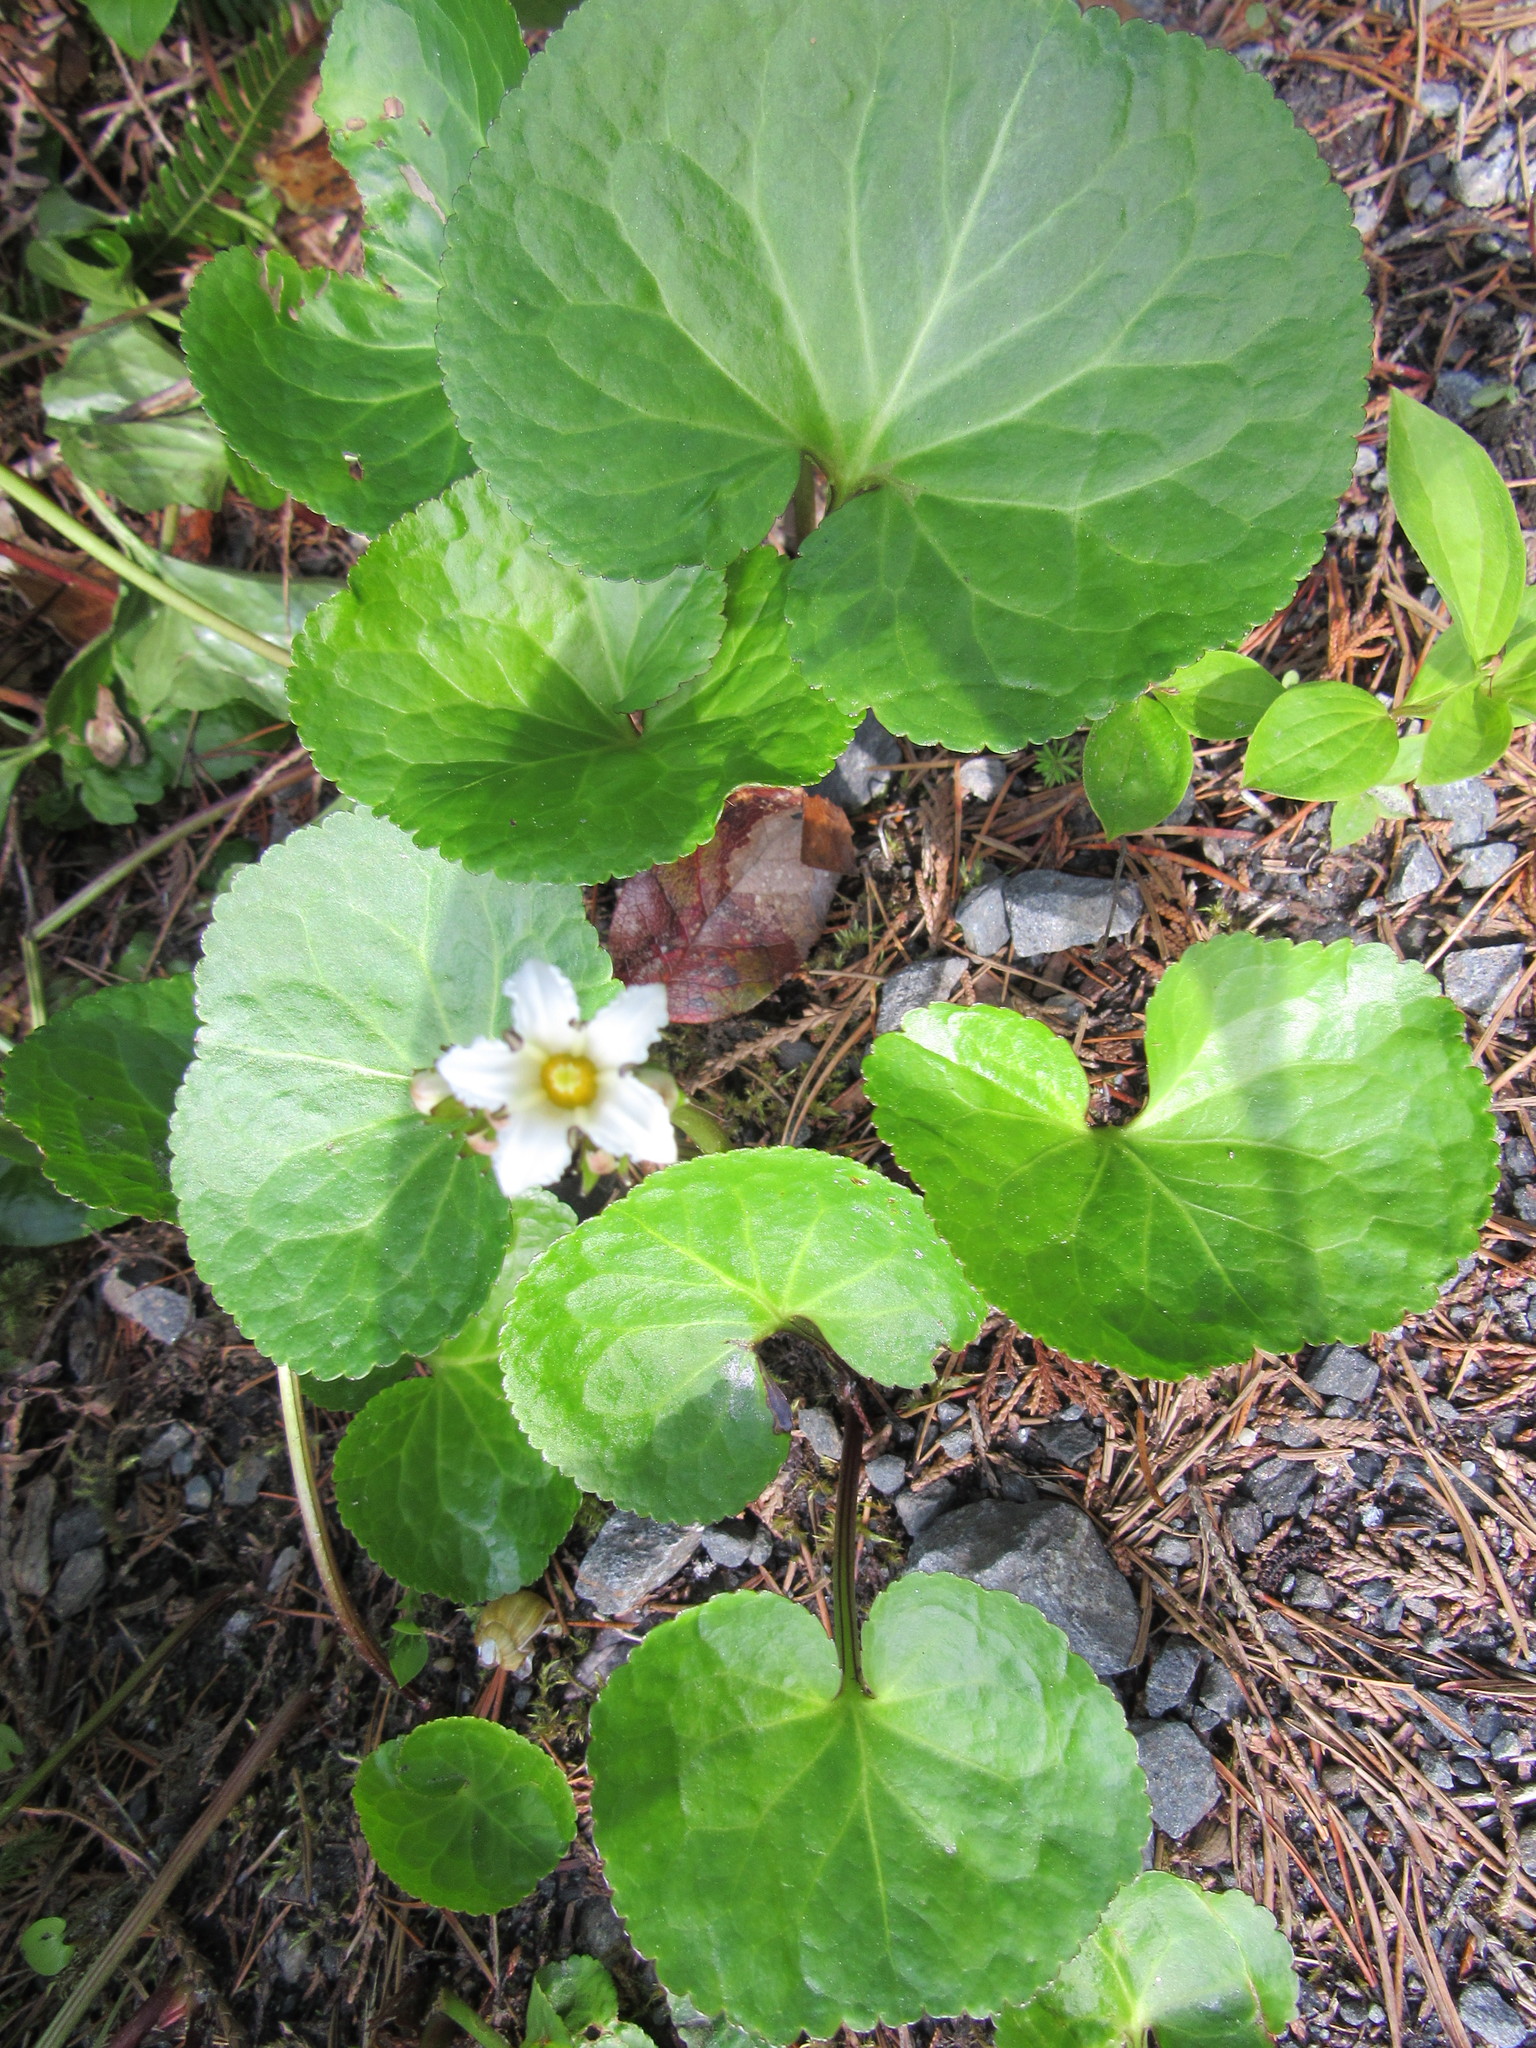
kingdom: Plantae
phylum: Tracheophyta
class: Magnoliopsida
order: Asterales
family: Menyanthaceae
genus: Nephrophyllidium
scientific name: Nephrophyllidium crista-galli
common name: Deer-cabbage
